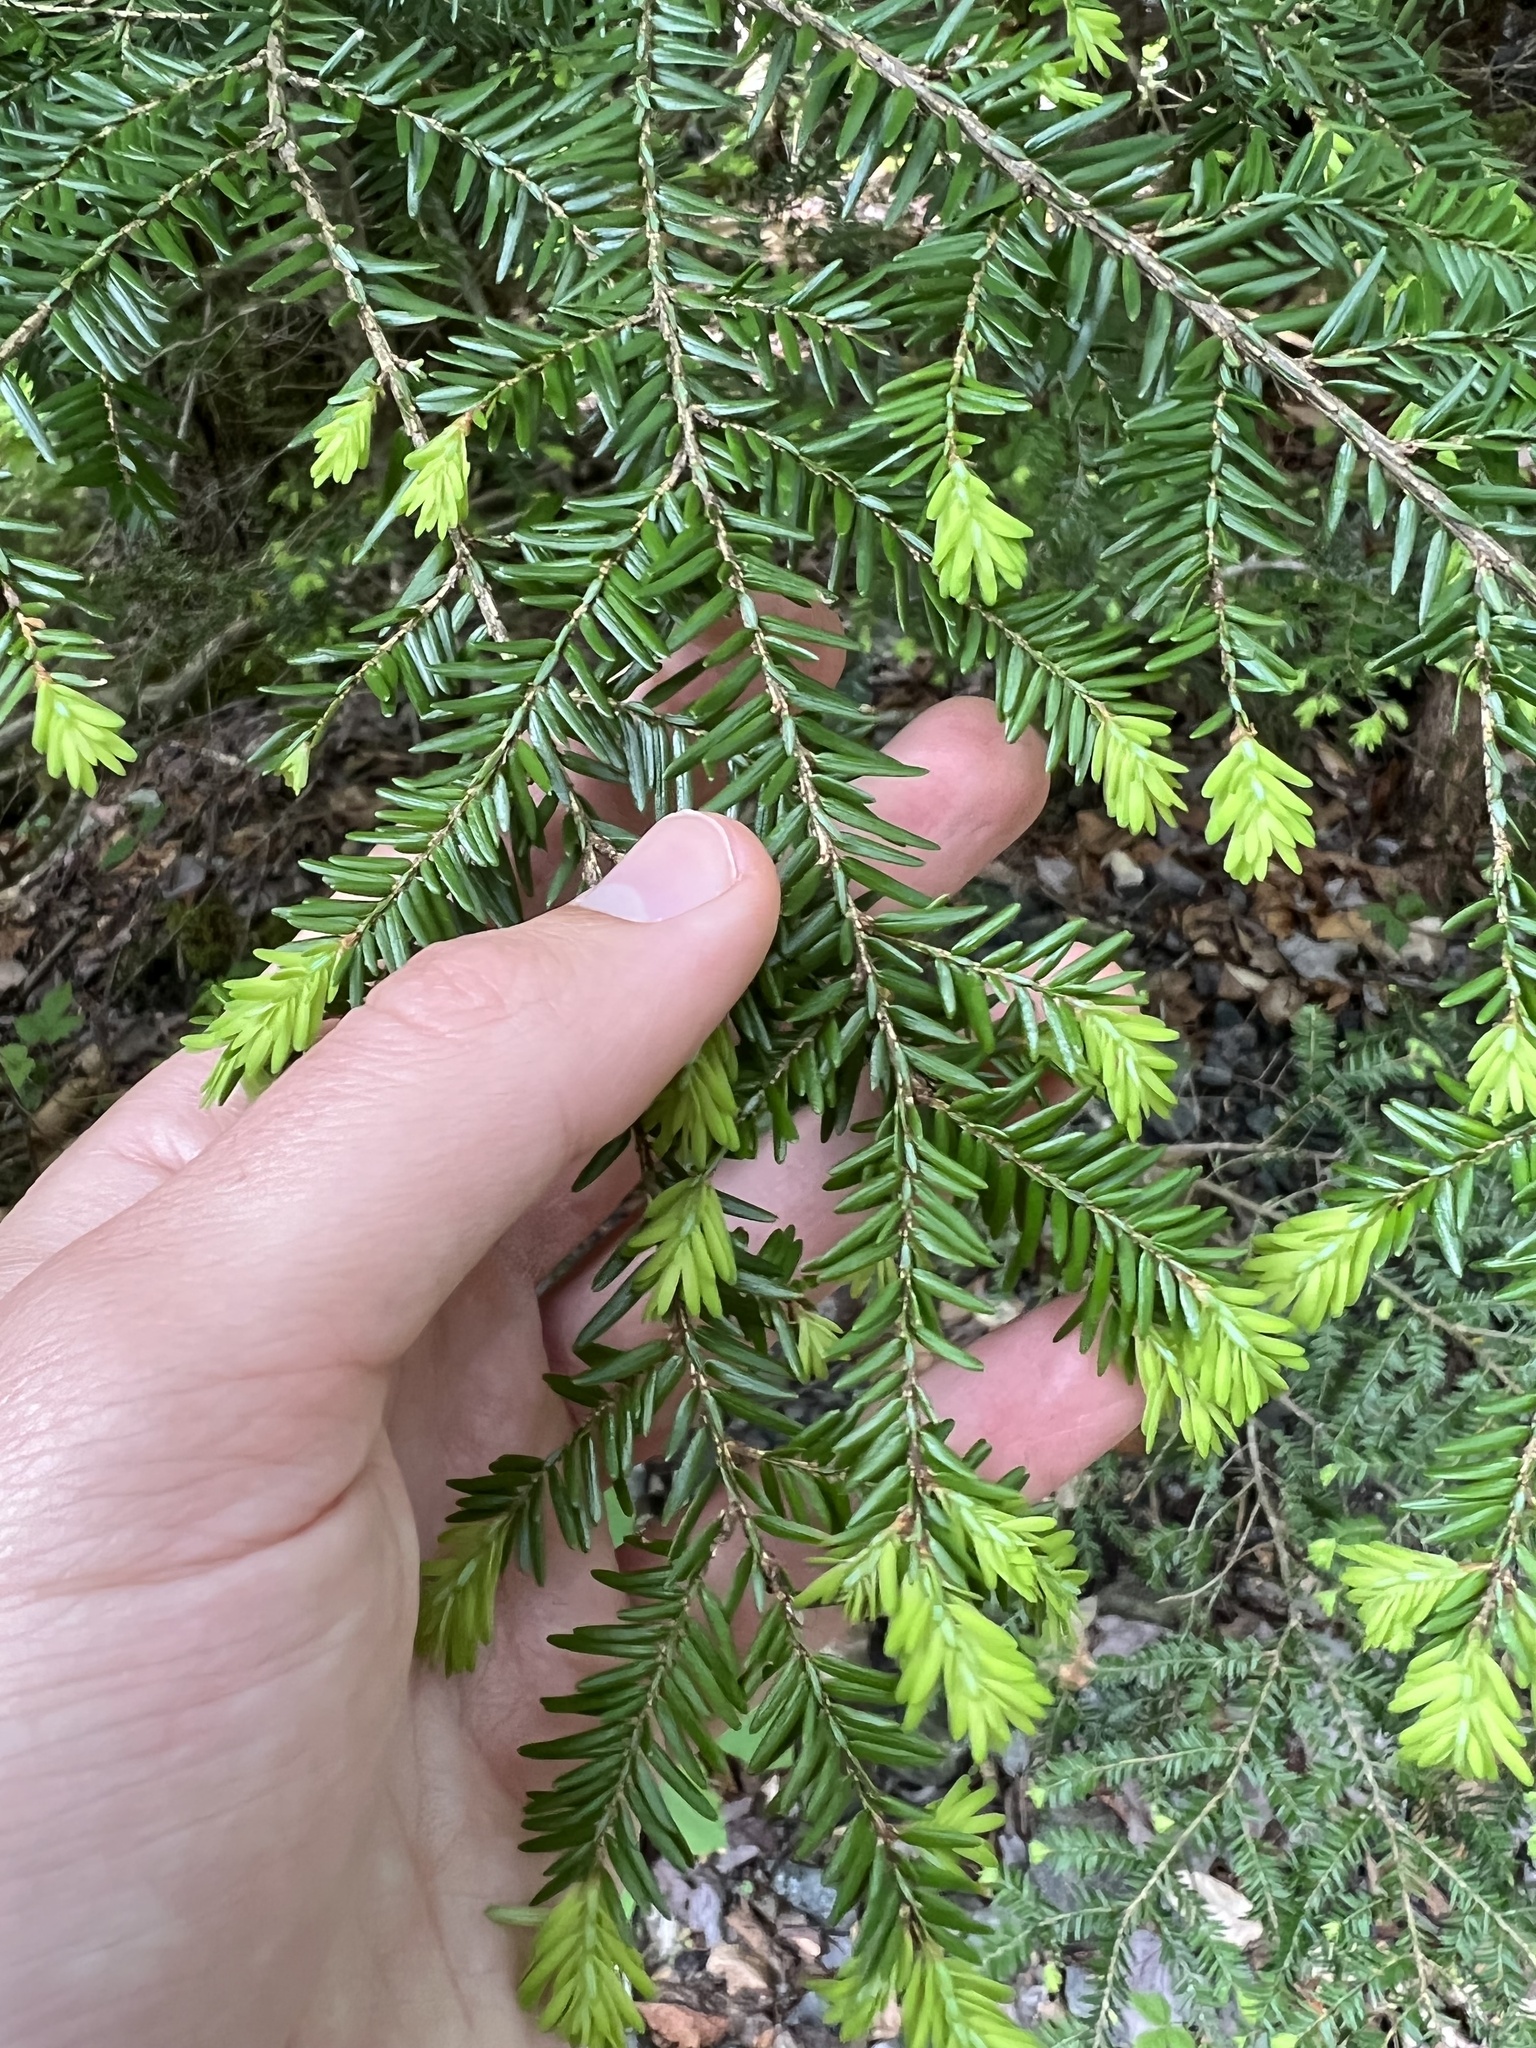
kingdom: Plantae
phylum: Tracheophyta
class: Pinopsida
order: Pinales
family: Pinaceae
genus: Tsuga
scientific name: Tsuga canadensis
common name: Eastern hemlock
